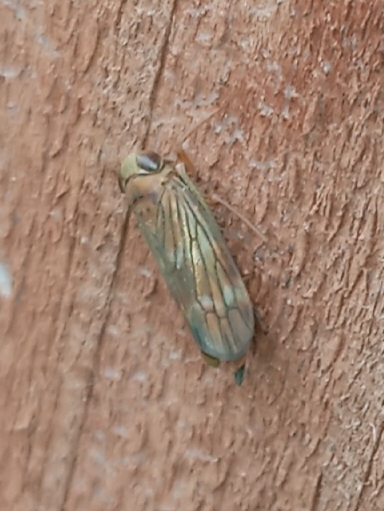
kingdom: Animalia
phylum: Arthropoda
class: Insecta
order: Hemiptera
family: Cicadellidae
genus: Jikradia
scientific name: Jikradia olitoria
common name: Coppery leafhopper
